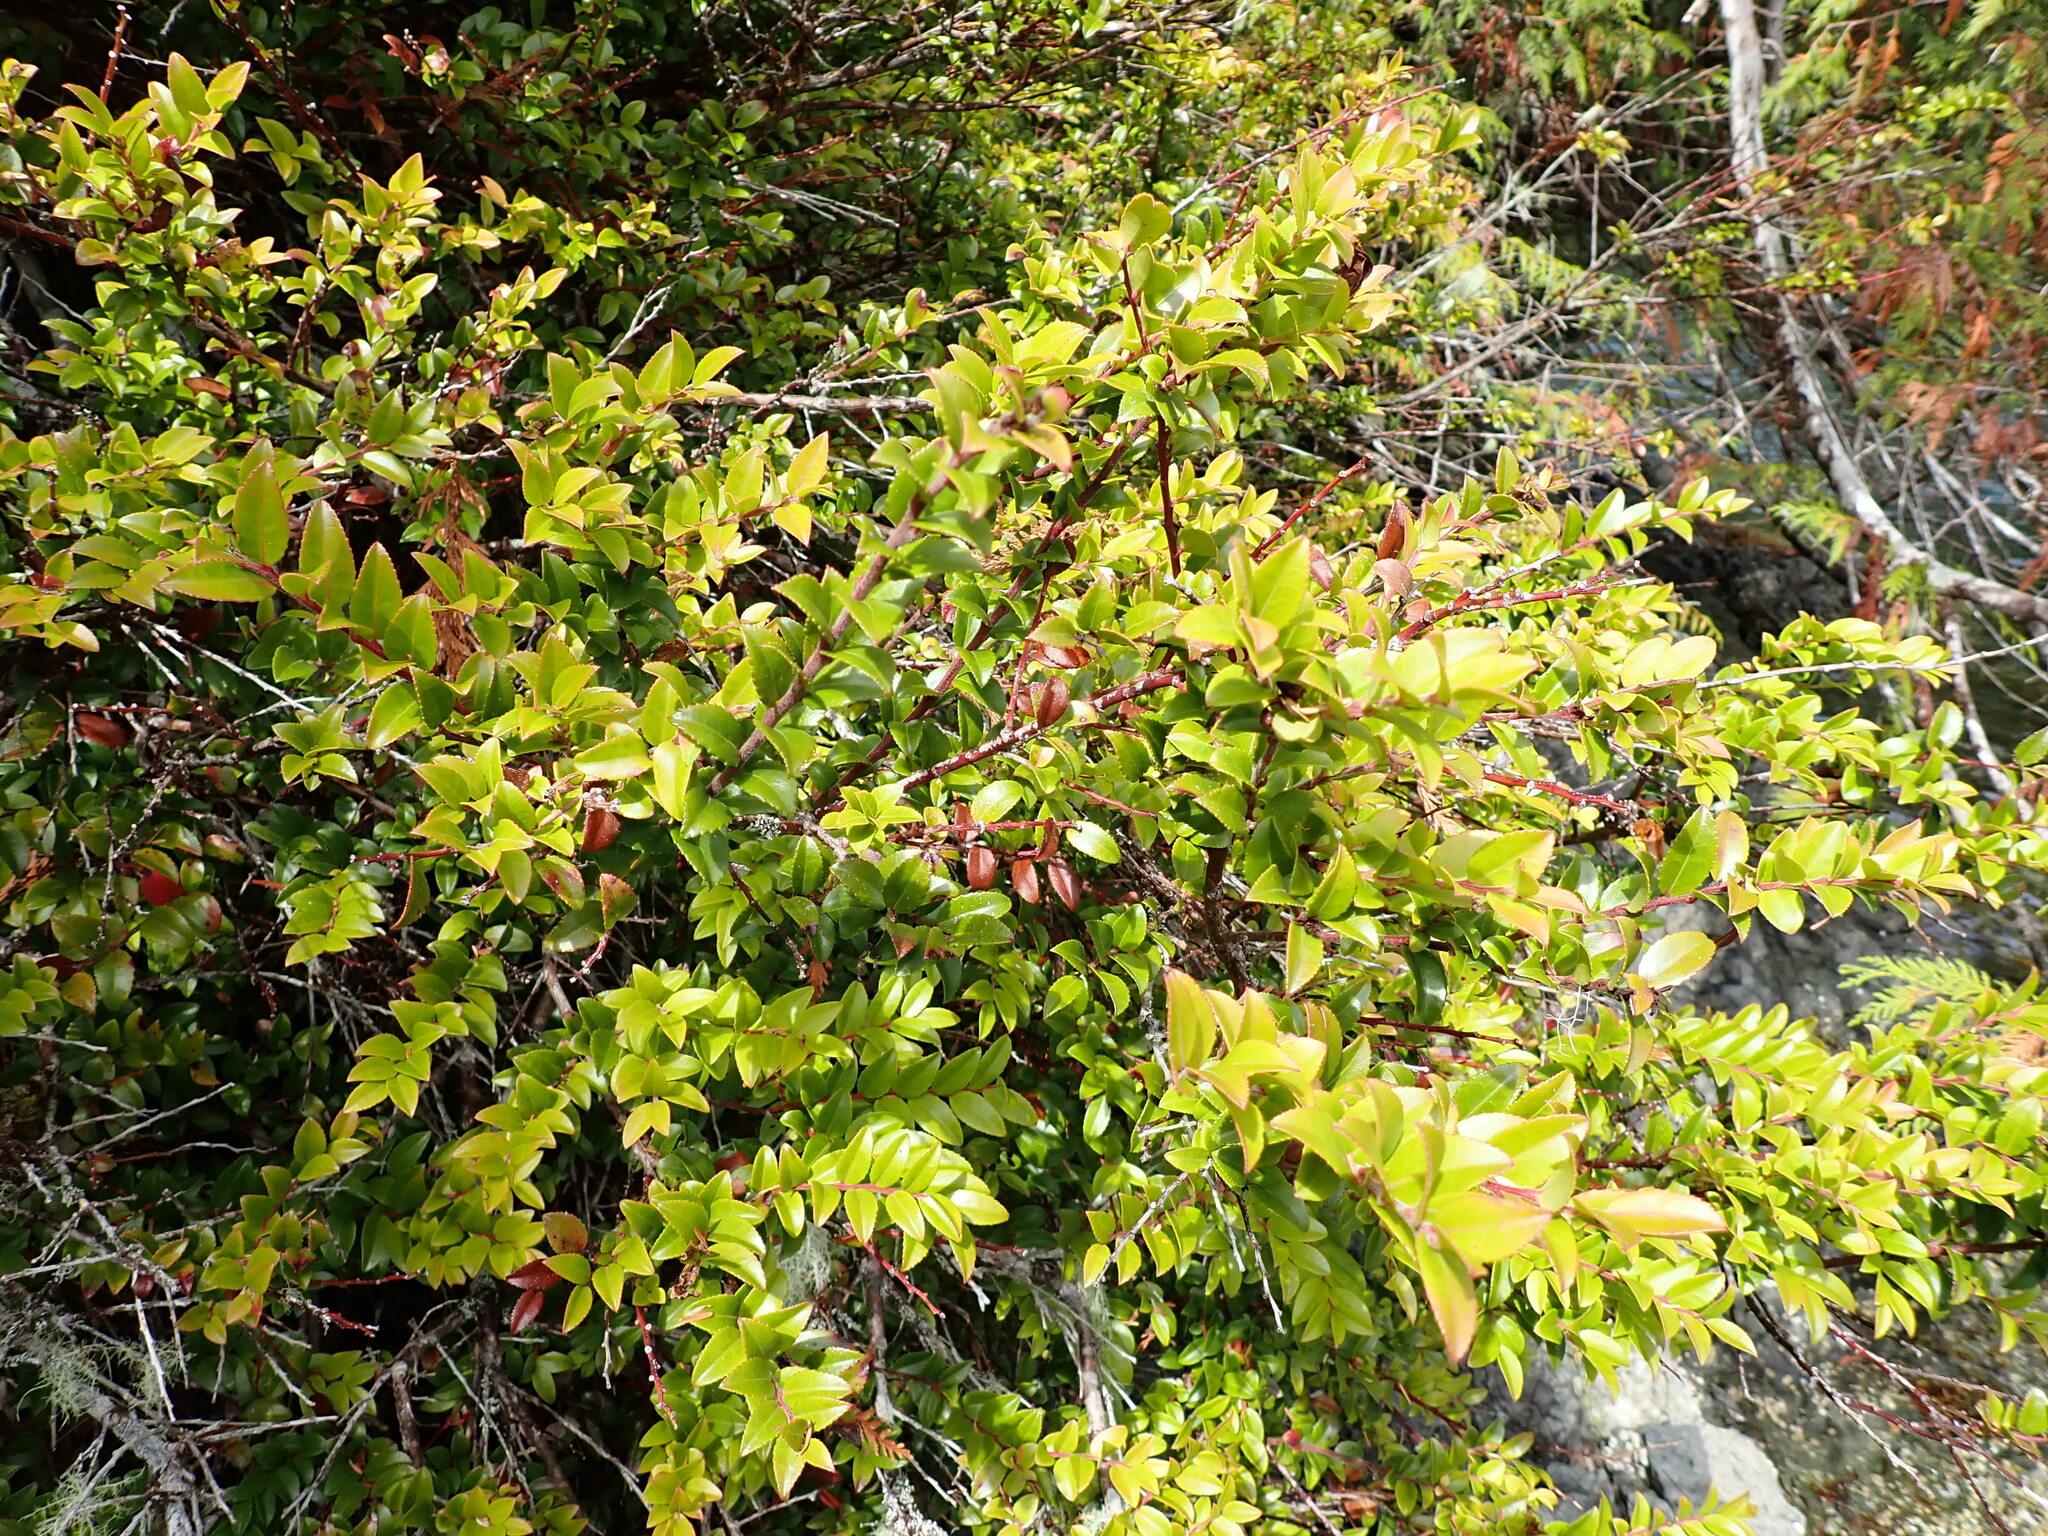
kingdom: Plantae
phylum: Tracheophyta
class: Magnoliopsida
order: Ericales
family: Ericaceae
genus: Vaccinium
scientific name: Vaccinium ovatum
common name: California-huckleberry
